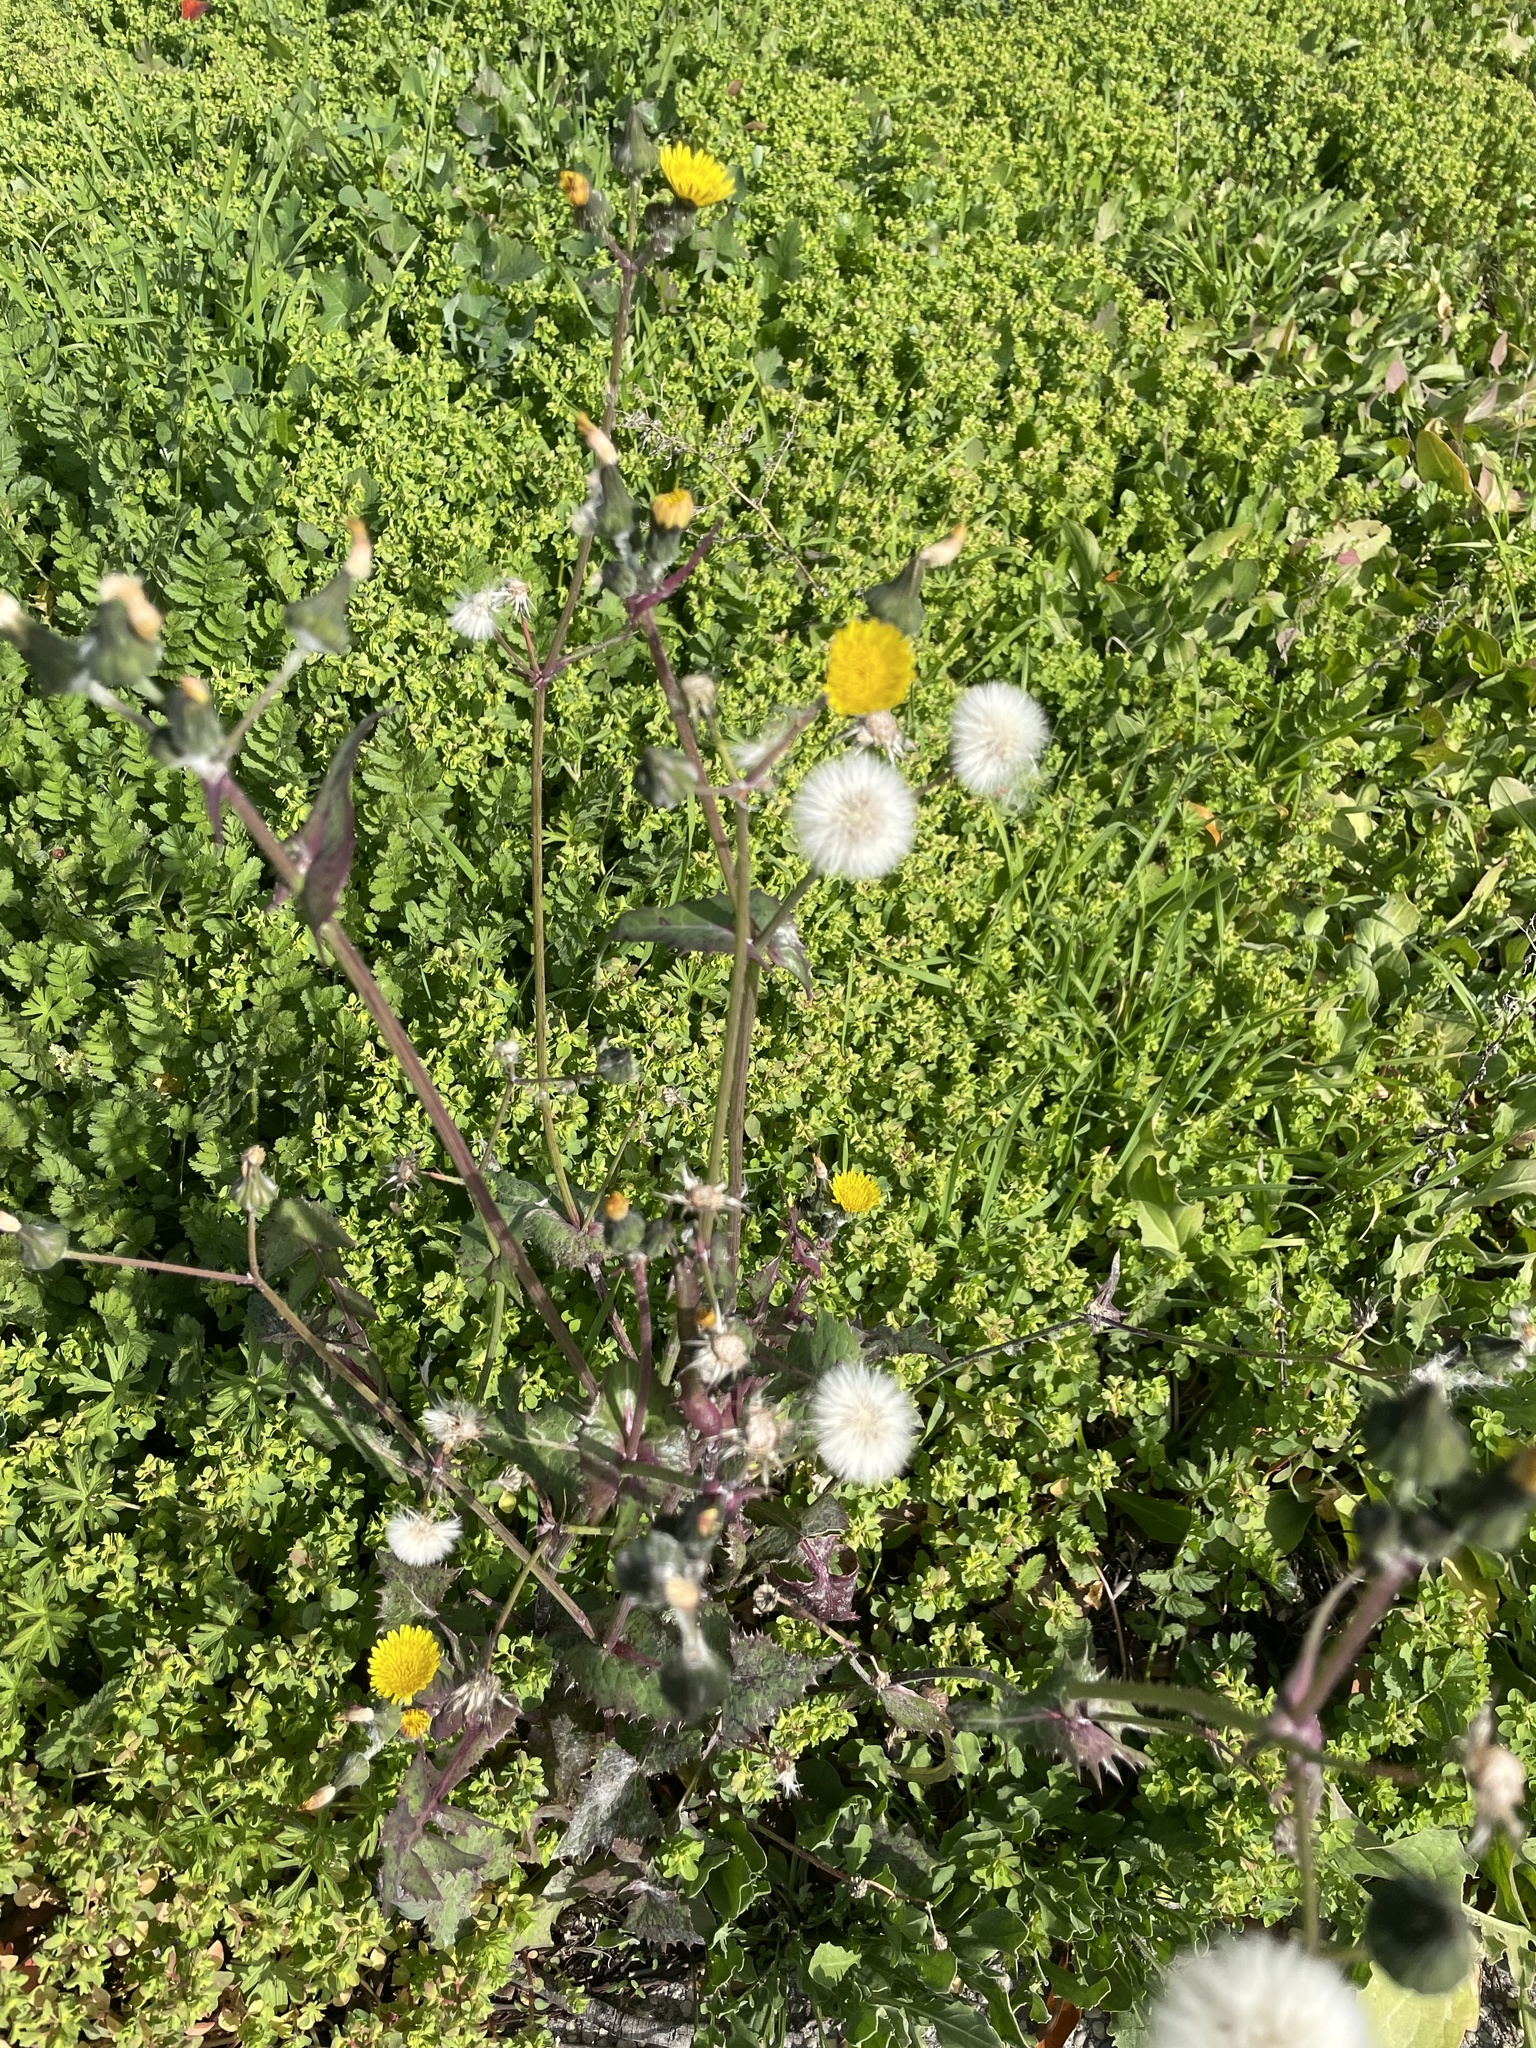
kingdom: Plantae
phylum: Tracheophyta
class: Magnoliopsida
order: Asterales
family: Asteraceae
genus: Sonchus
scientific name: Sonchus oleraceus
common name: Common sowthistle
